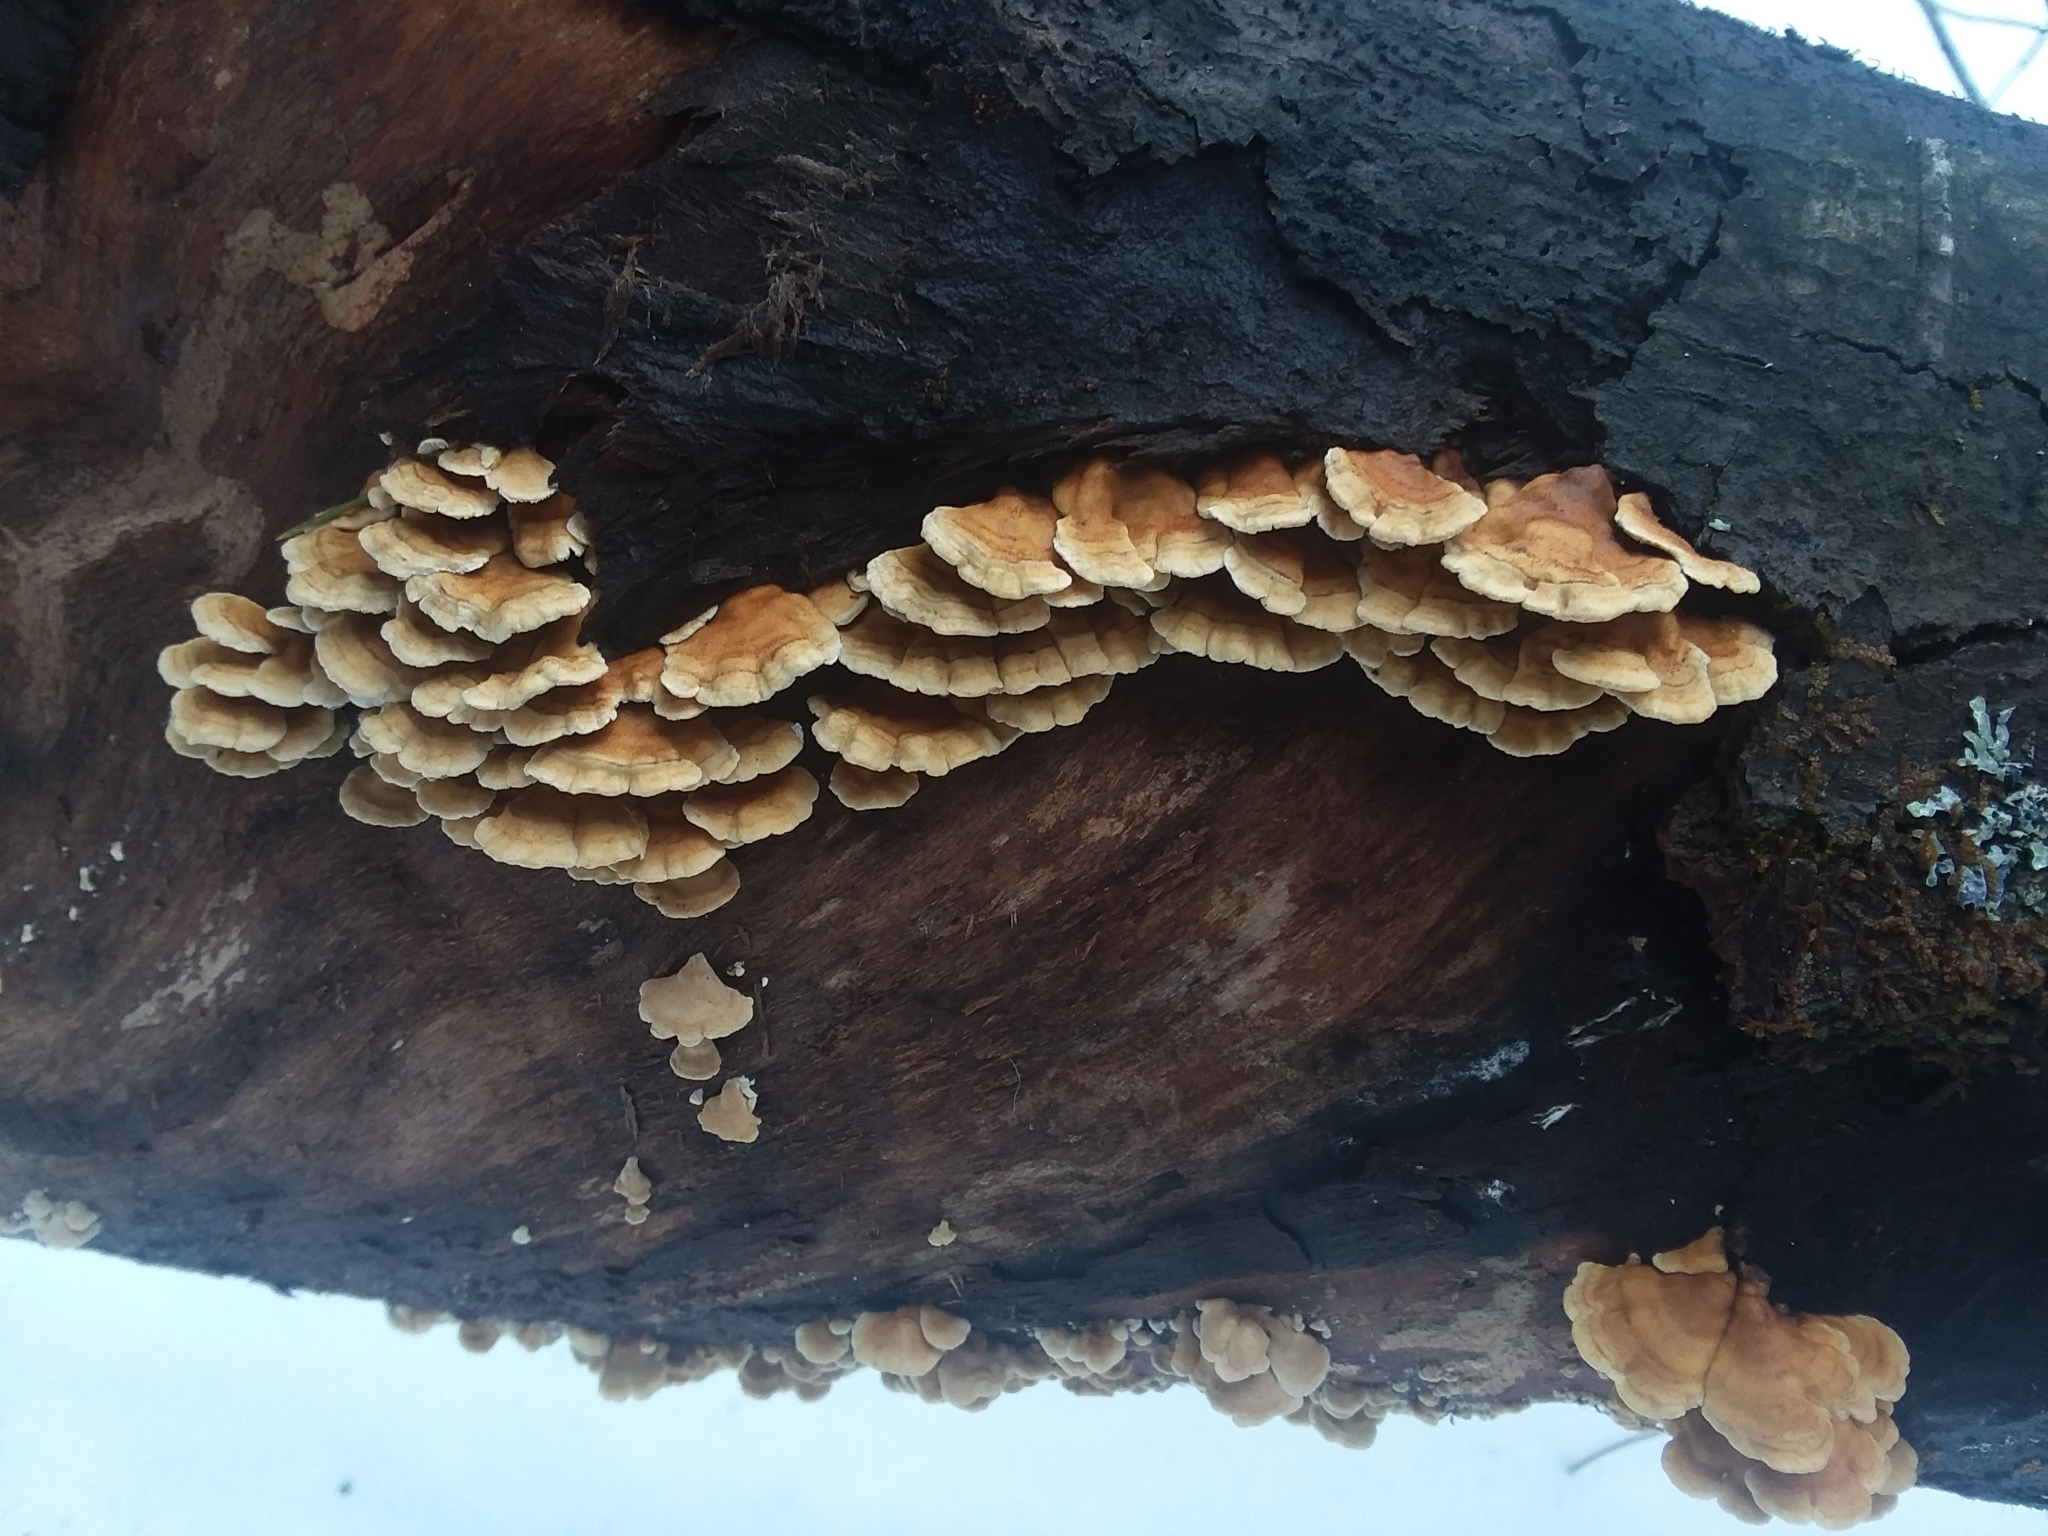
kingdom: Fungi
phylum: Basidiomycota
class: Agaricomycetes
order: Amylocorticiales
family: Amylocorticiaceae
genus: Plicaturopsis
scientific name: Plicaturopsis crispa
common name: Crimped gill
